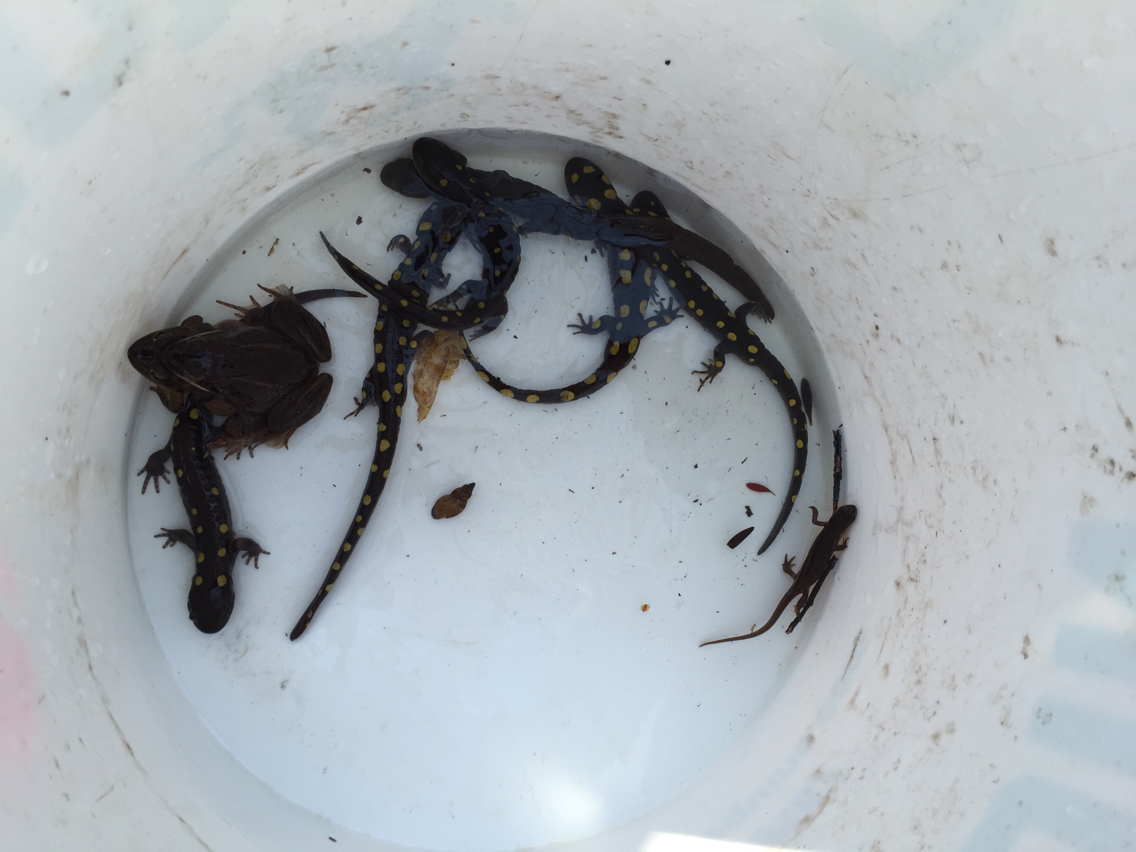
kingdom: Animalia
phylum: Chordata
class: Amphibia
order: Caudata
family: Salamandridae
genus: Notophthalmus
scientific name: Notophthalmus viridescens
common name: Eastern newt
